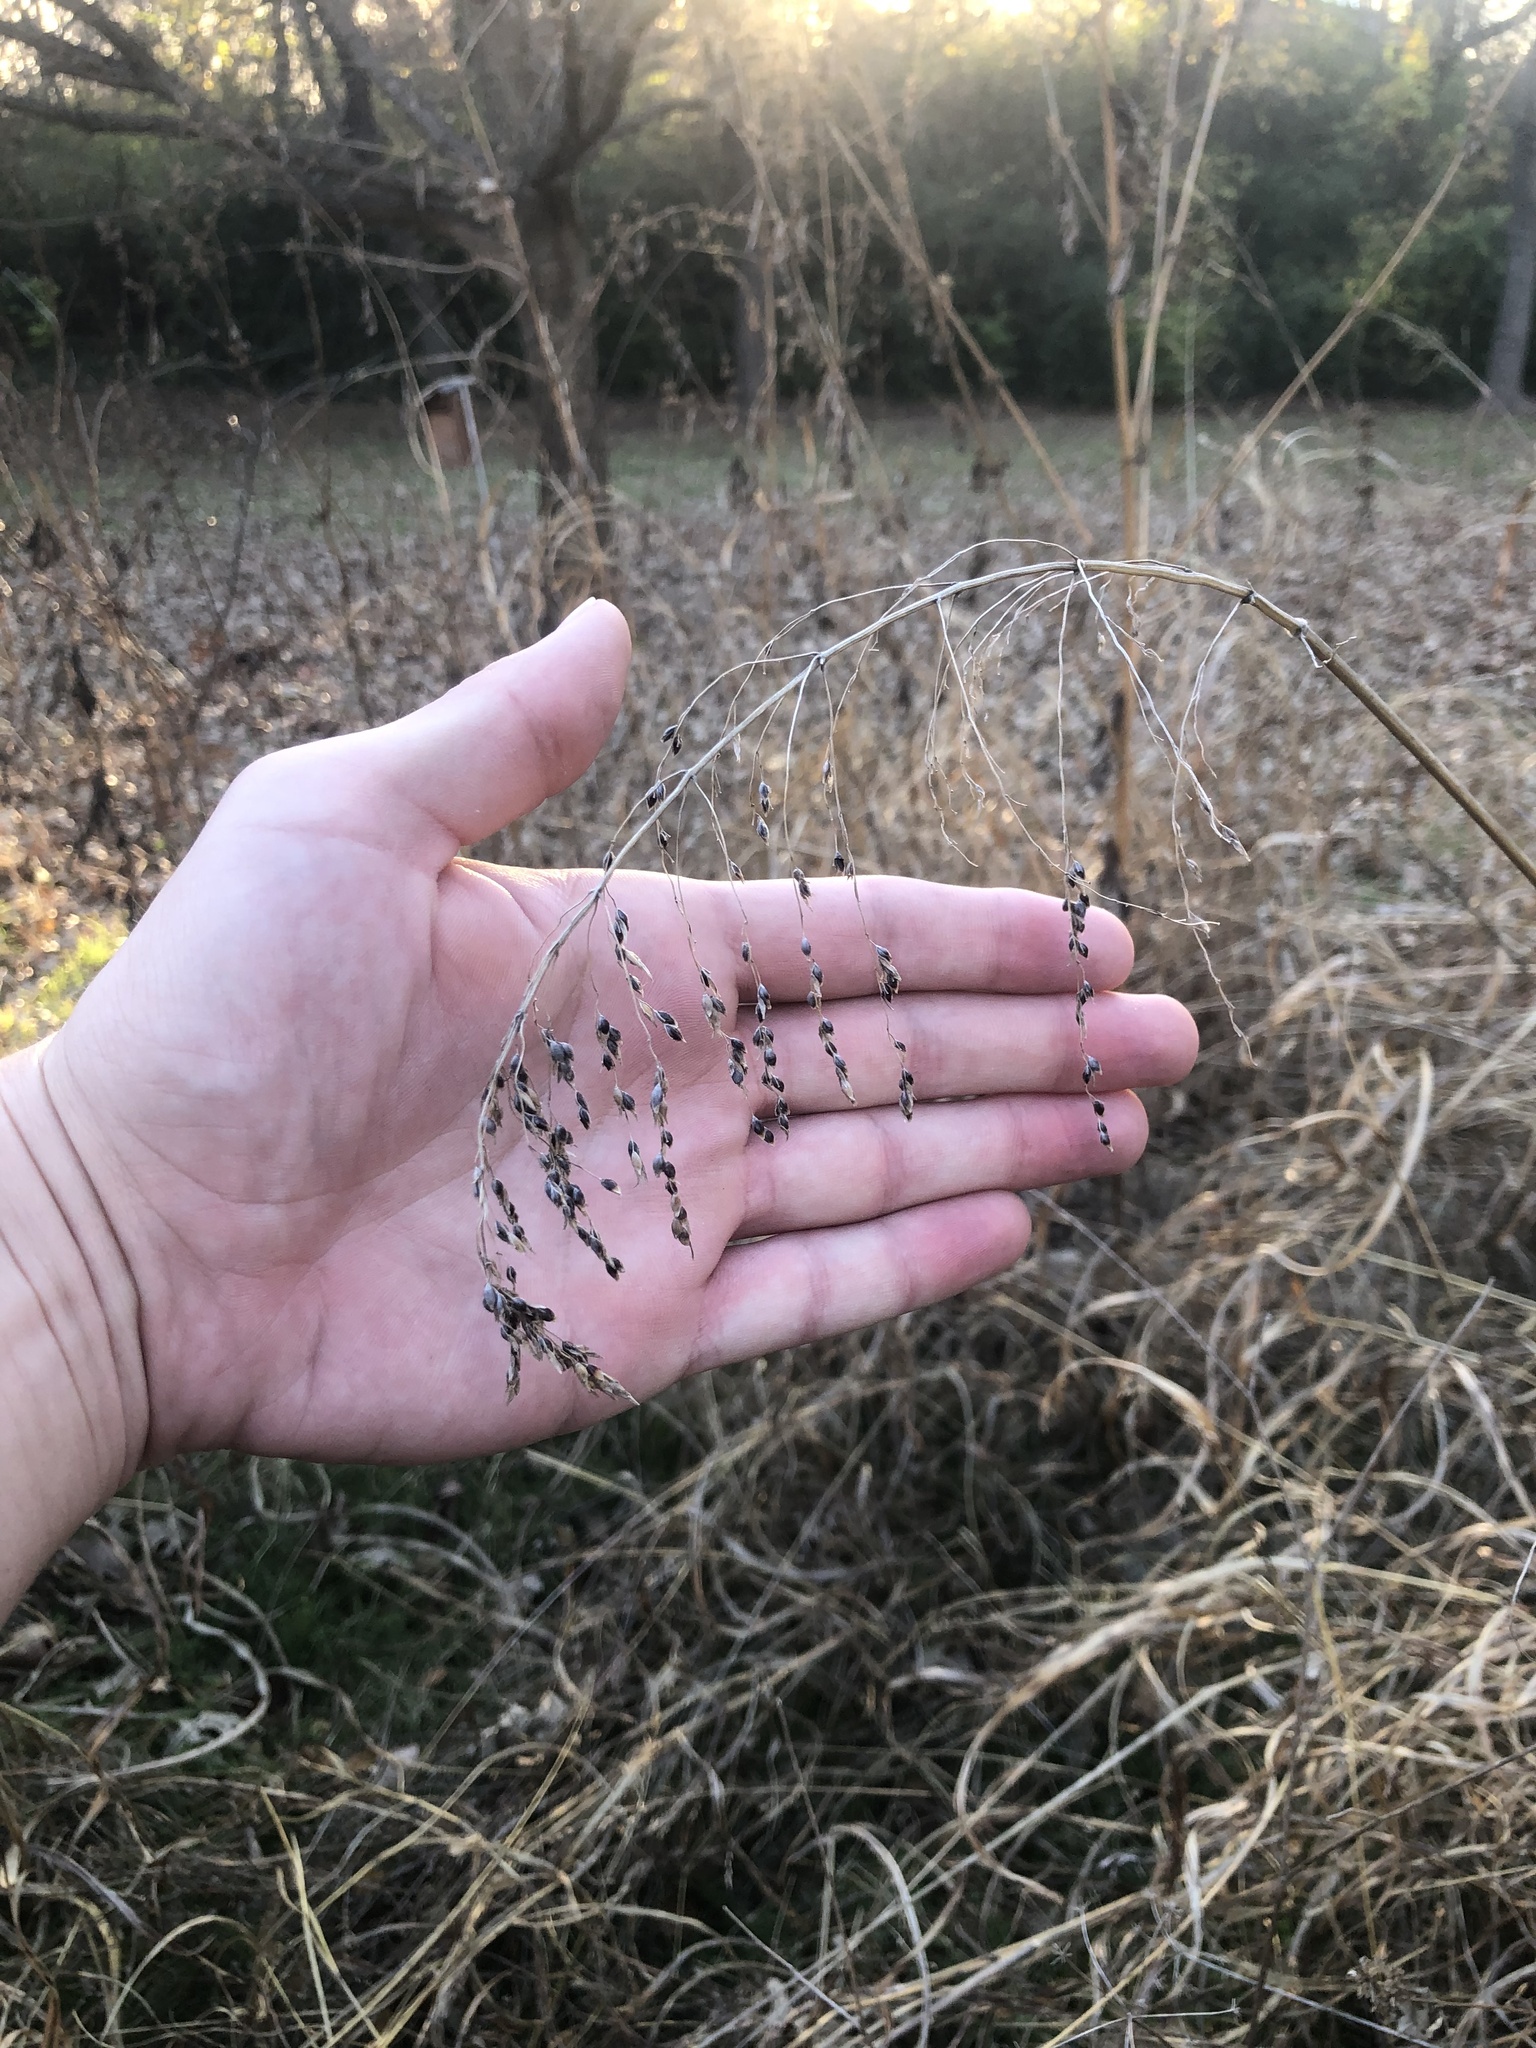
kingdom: Plantae
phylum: Tracheophyta
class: Liliopsida
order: Poales
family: Poaceae
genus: Sorghum
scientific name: Sorghum halepense
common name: Johnson-grass
